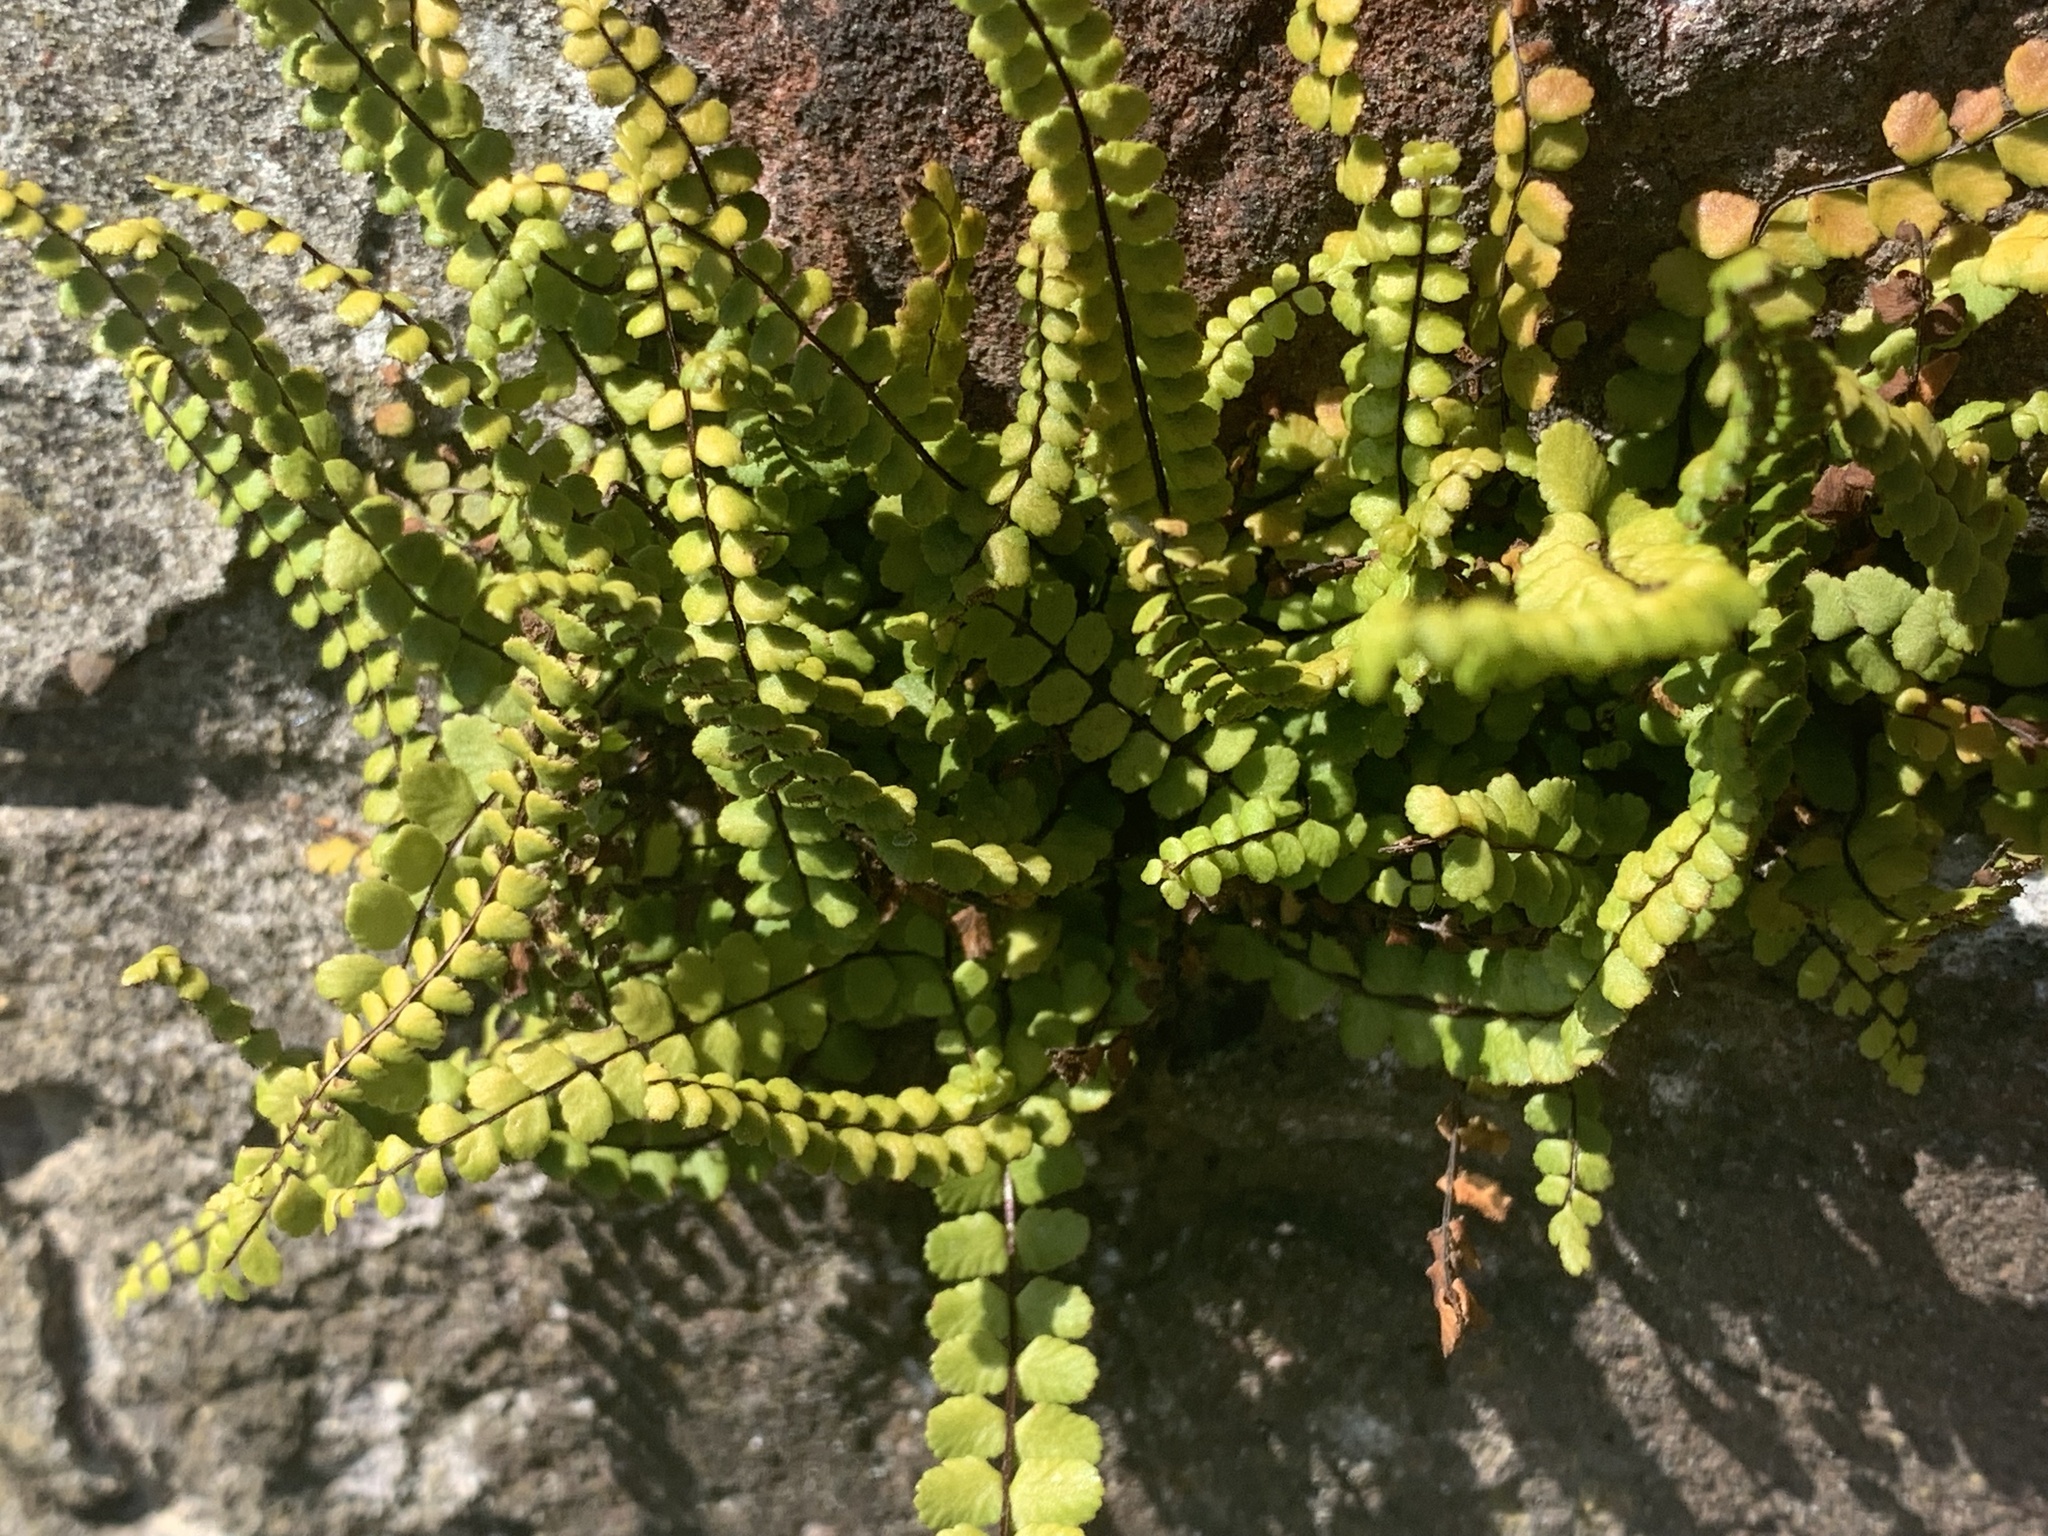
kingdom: Plantae
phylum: Tracheophyta
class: Polypodiopsida
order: Polypodiales
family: Aspleniaceae
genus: Asplenium
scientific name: Asplenium trichomanes
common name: Maidenhair spleenwort
